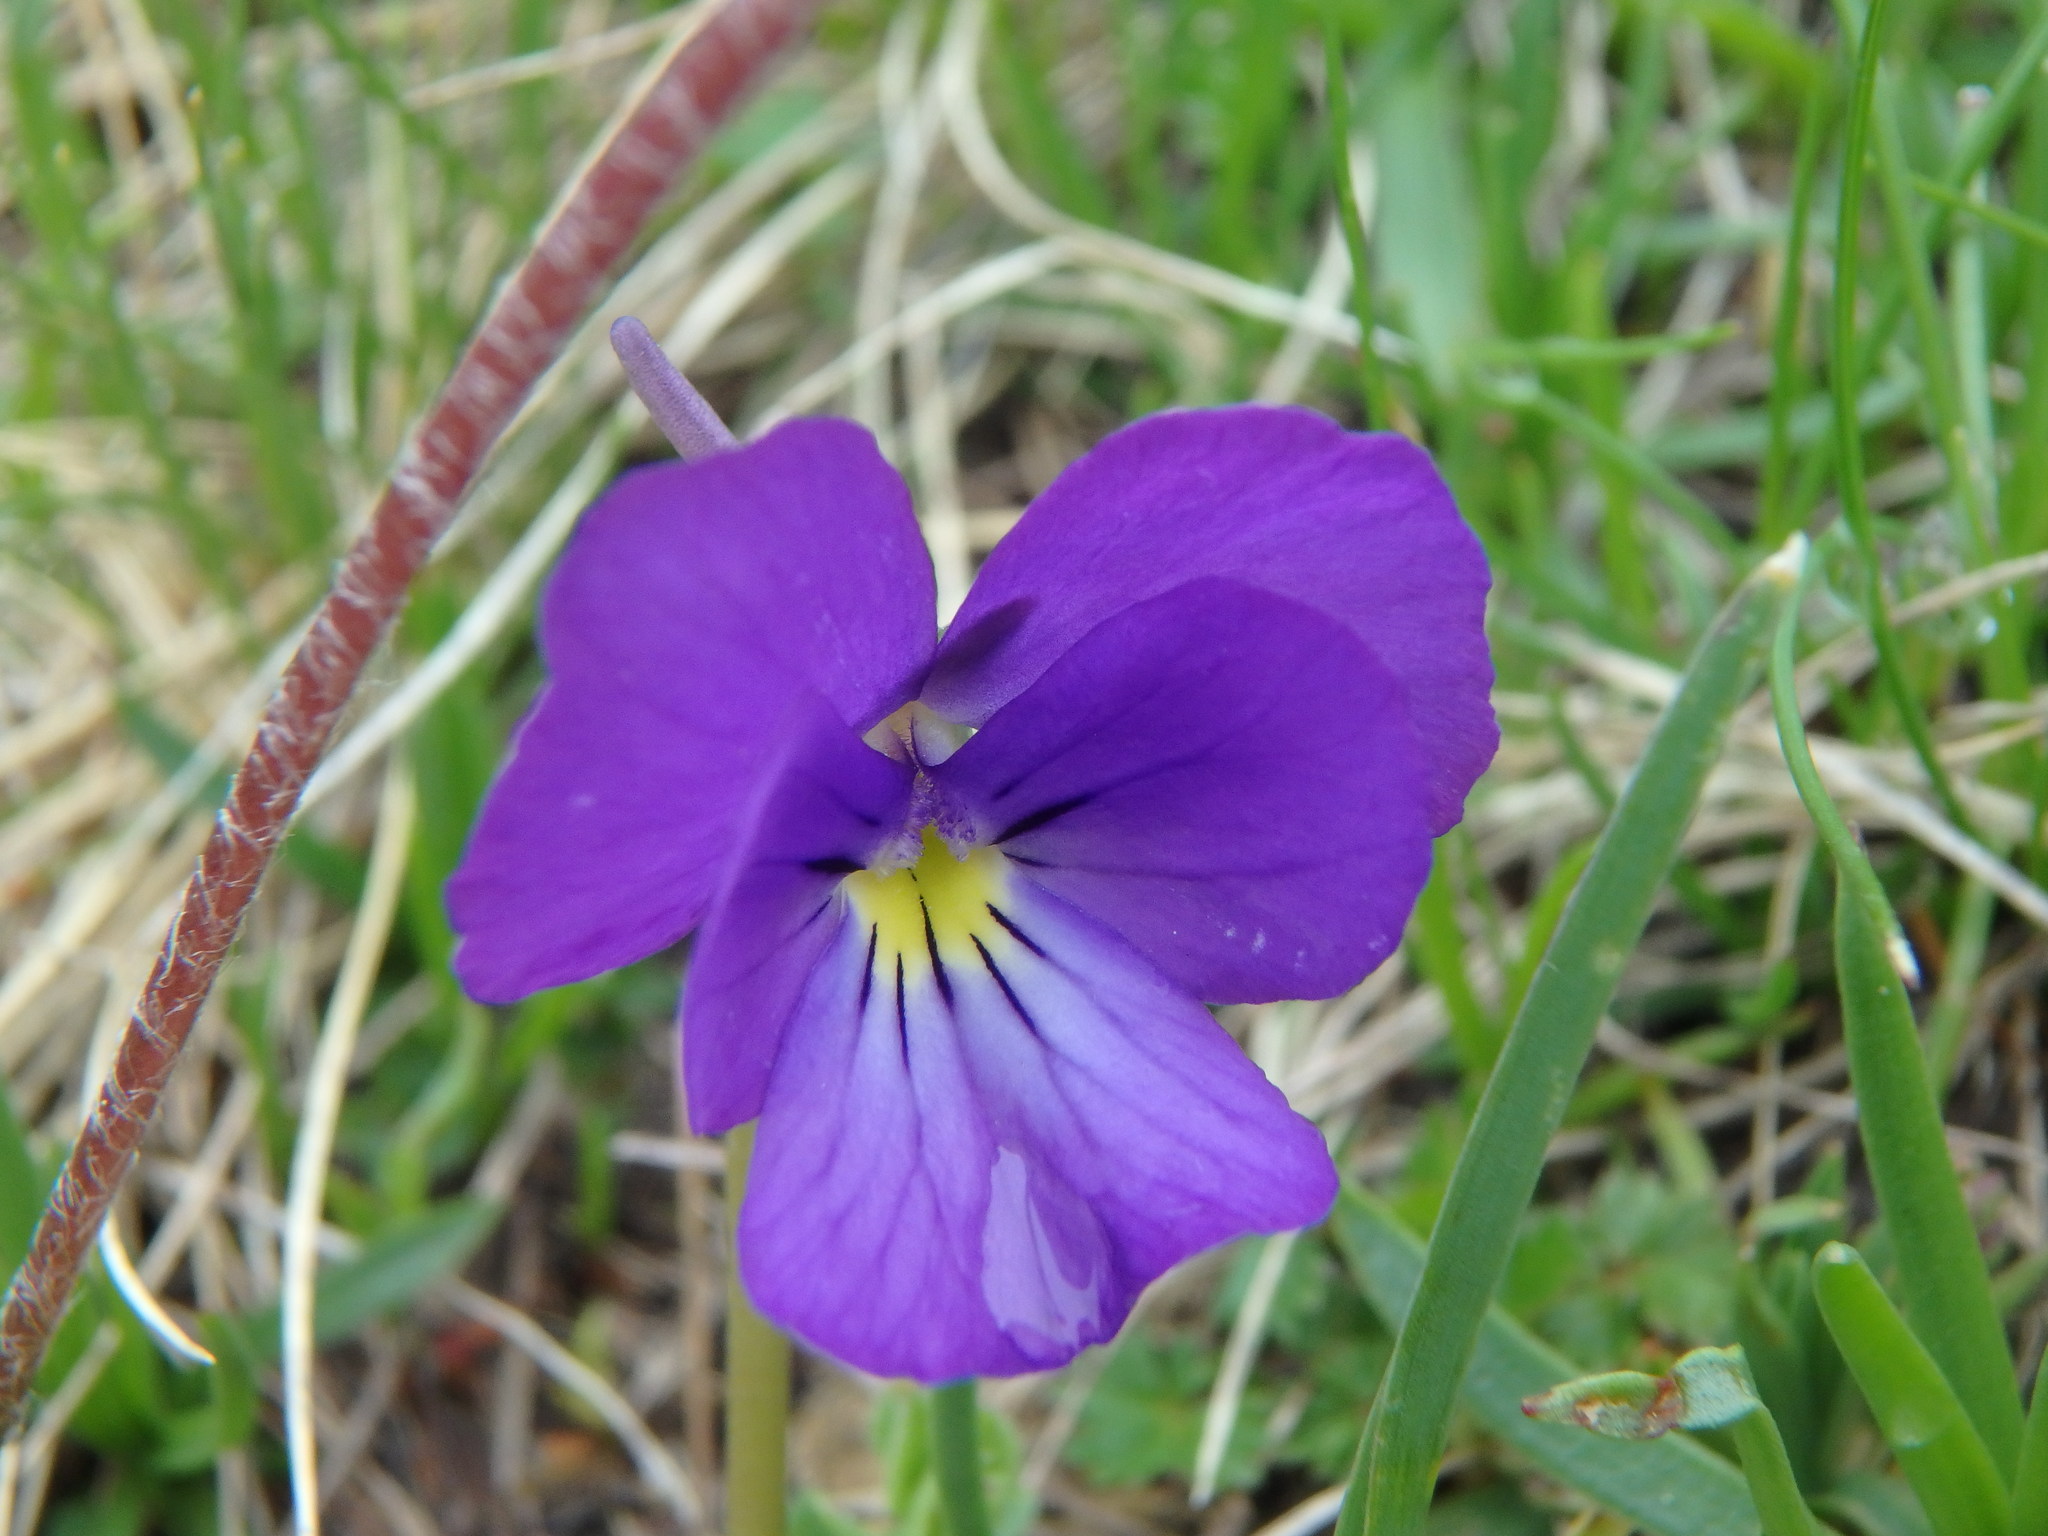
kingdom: Plantae
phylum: Tracheophyta
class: Magnoliopsida
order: Malpighiales
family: Violaceae
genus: Viola
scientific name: Viola calcarata
